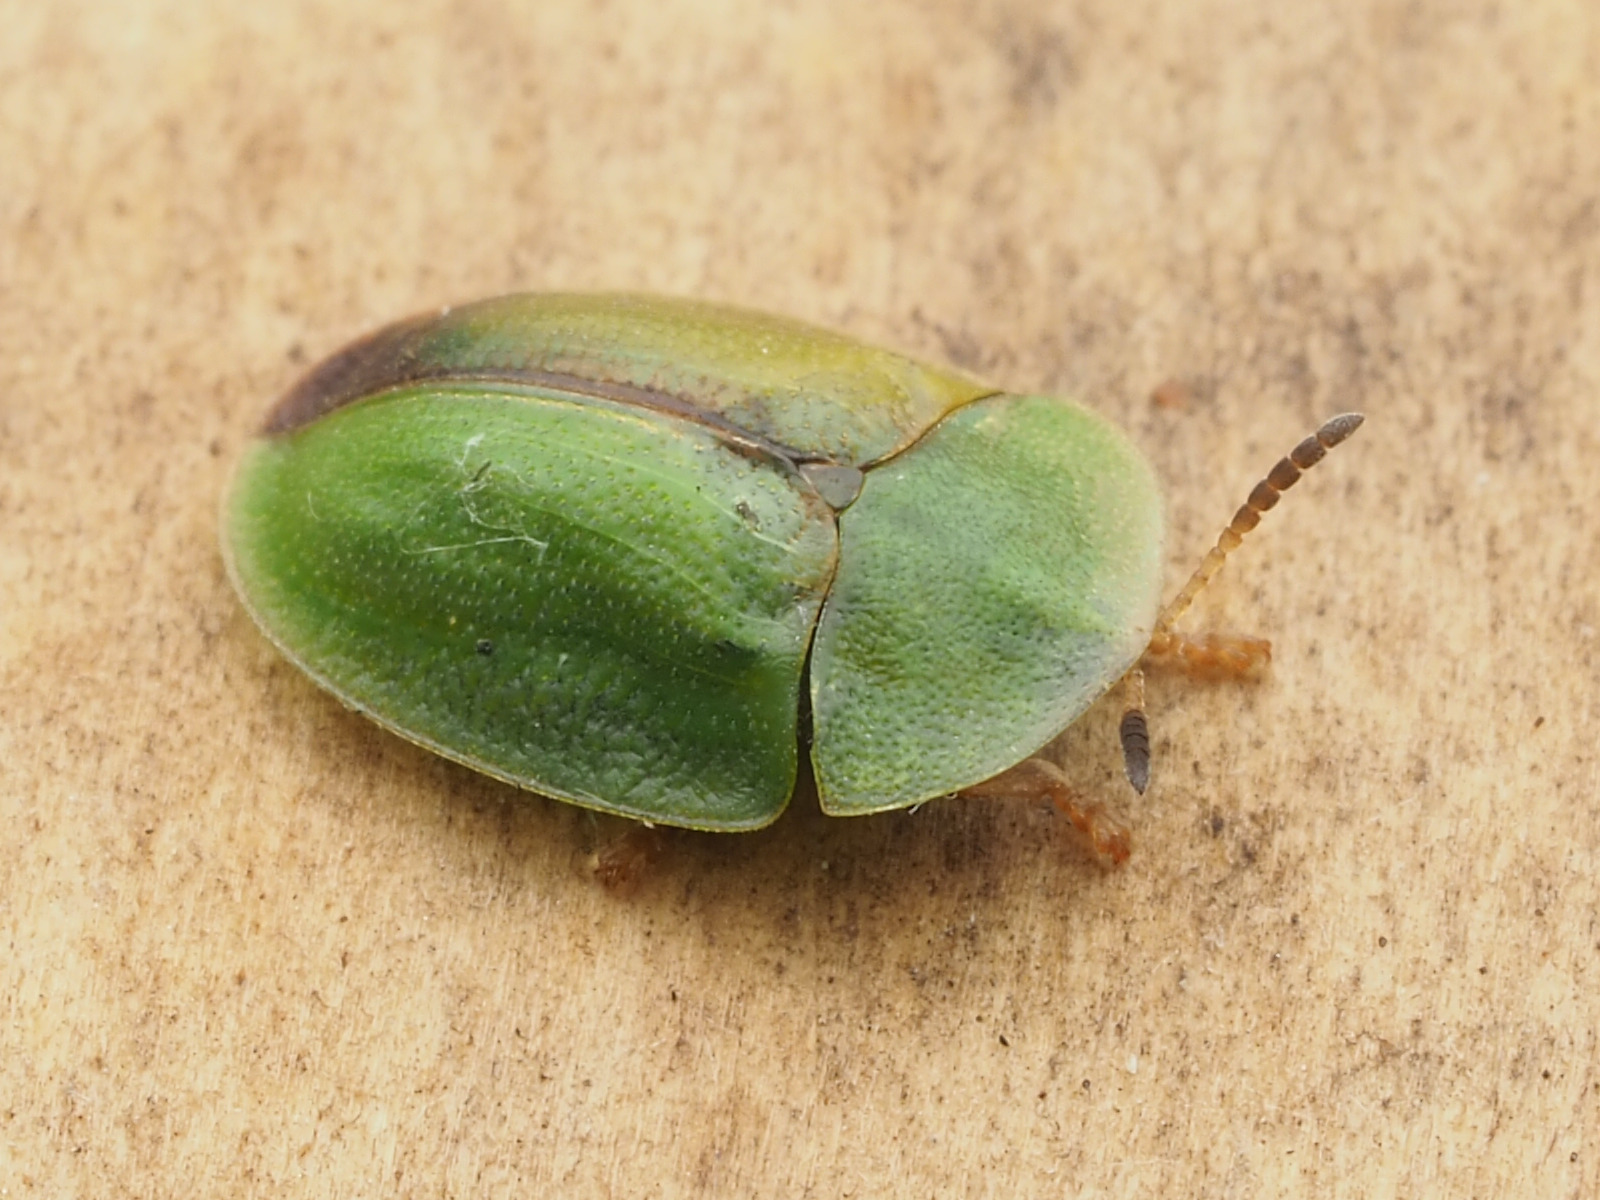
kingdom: Animalia
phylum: Arthropoda
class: Insecta
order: Coleoptera
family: Chrysomelidae
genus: Cassida
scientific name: Cassida rubiginosa
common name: Thistle tortoise beetle
